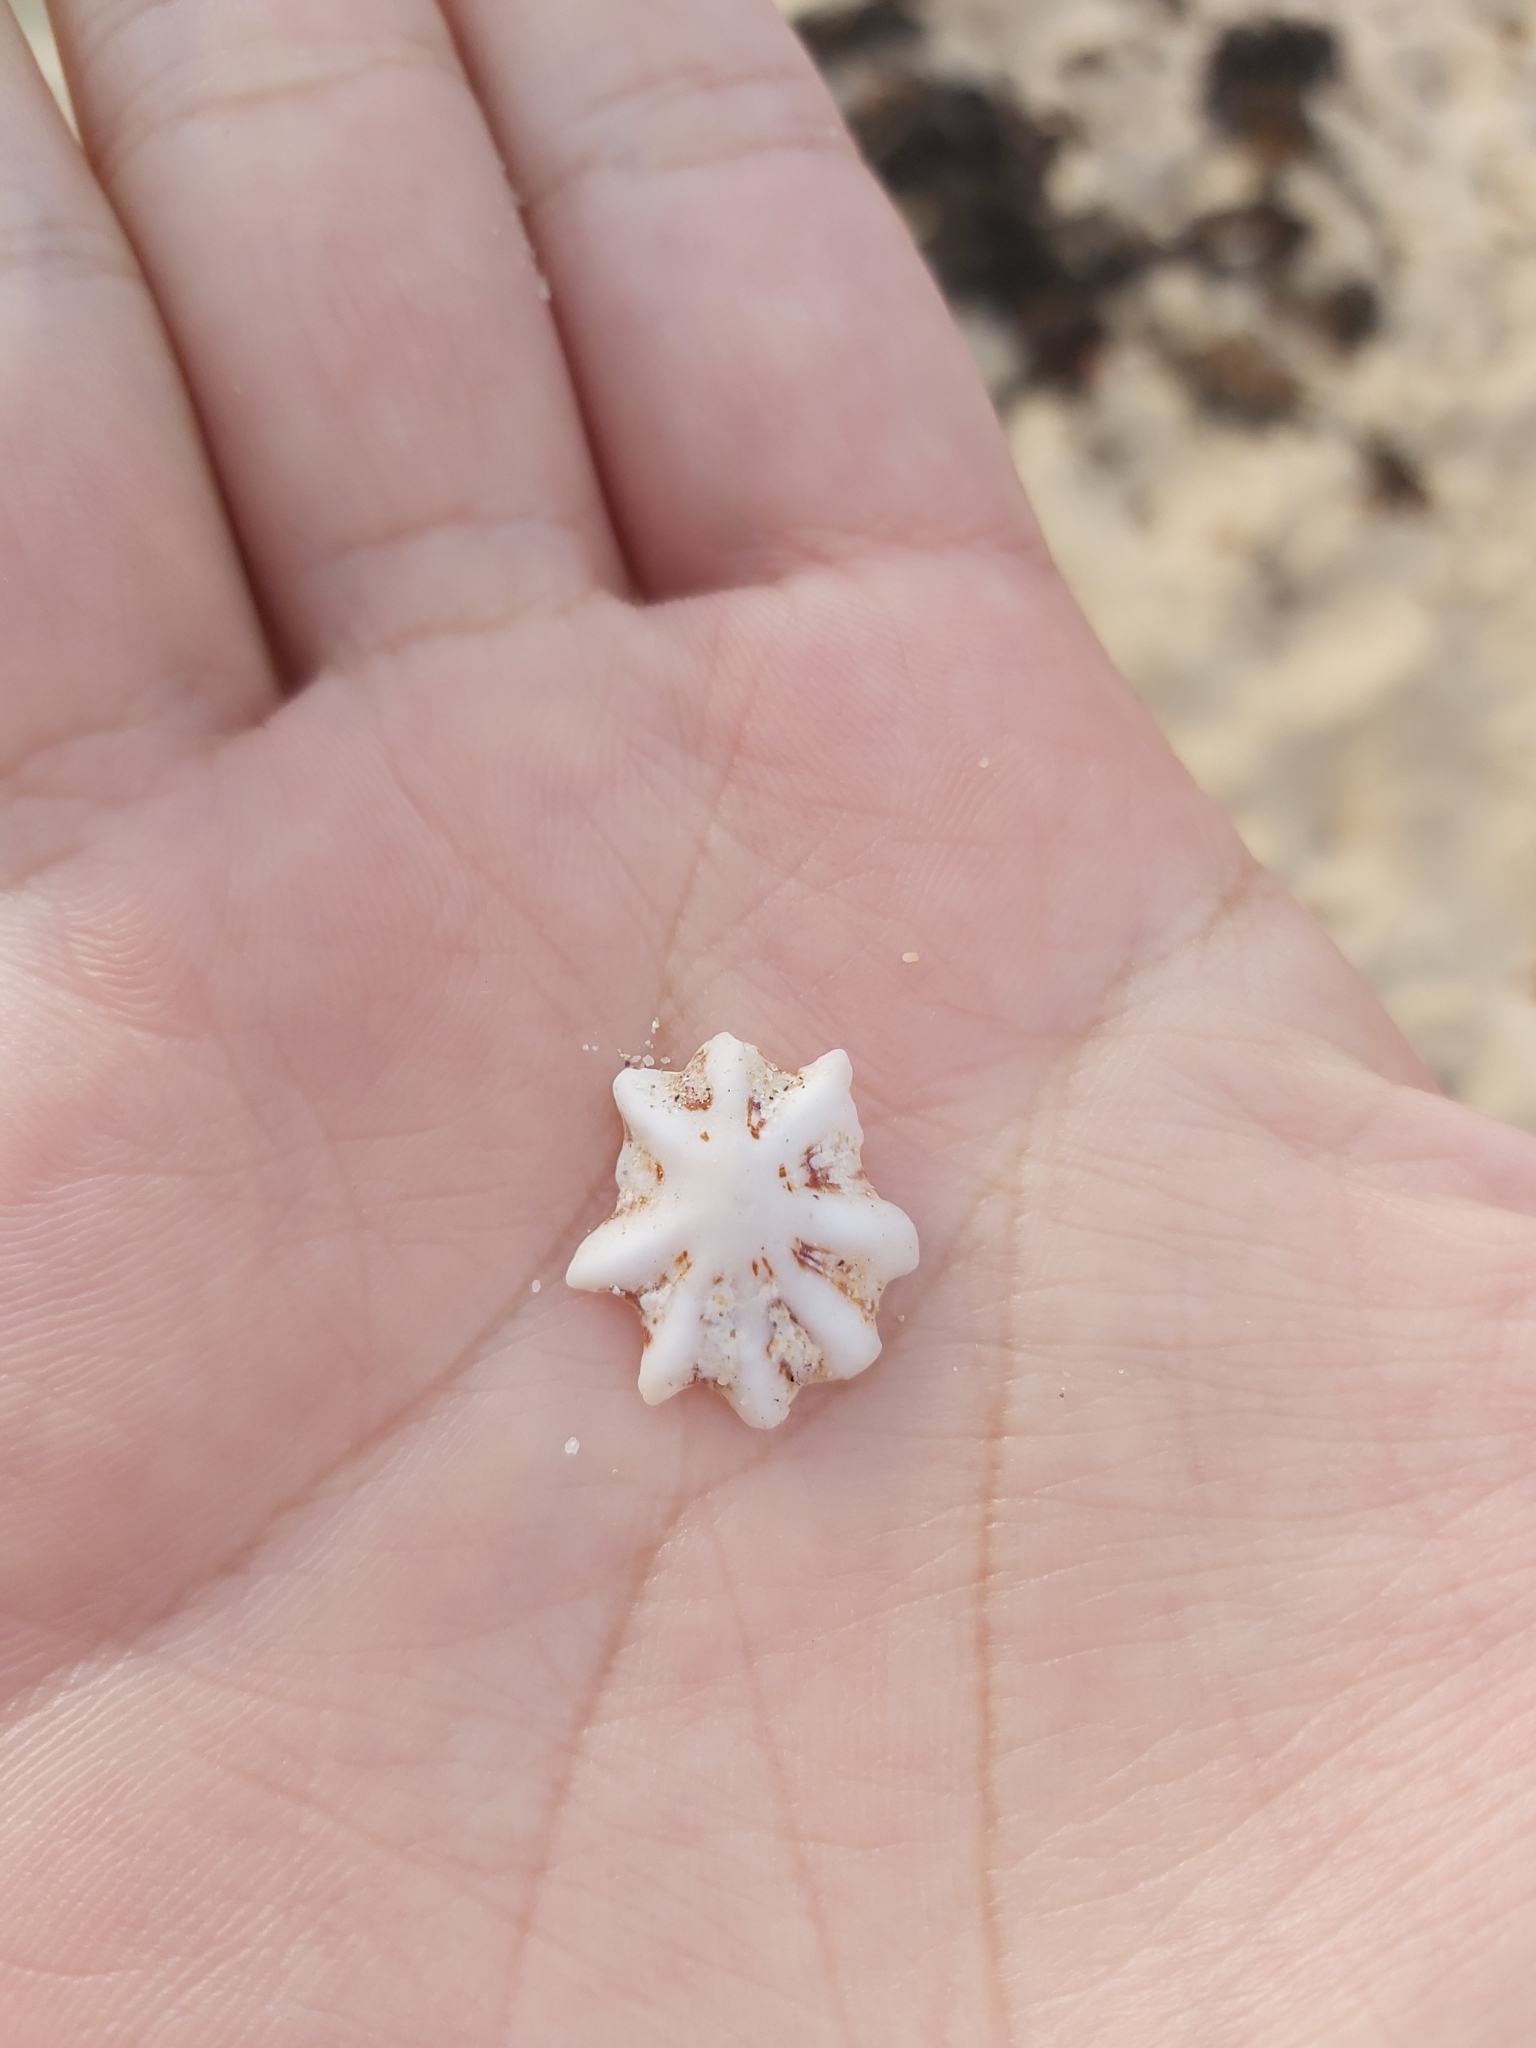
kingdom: Animalia
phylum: Mollusca
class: Gastropoda
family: Patellidae
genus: Scutellastra
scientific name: Scutellastra chapmani
